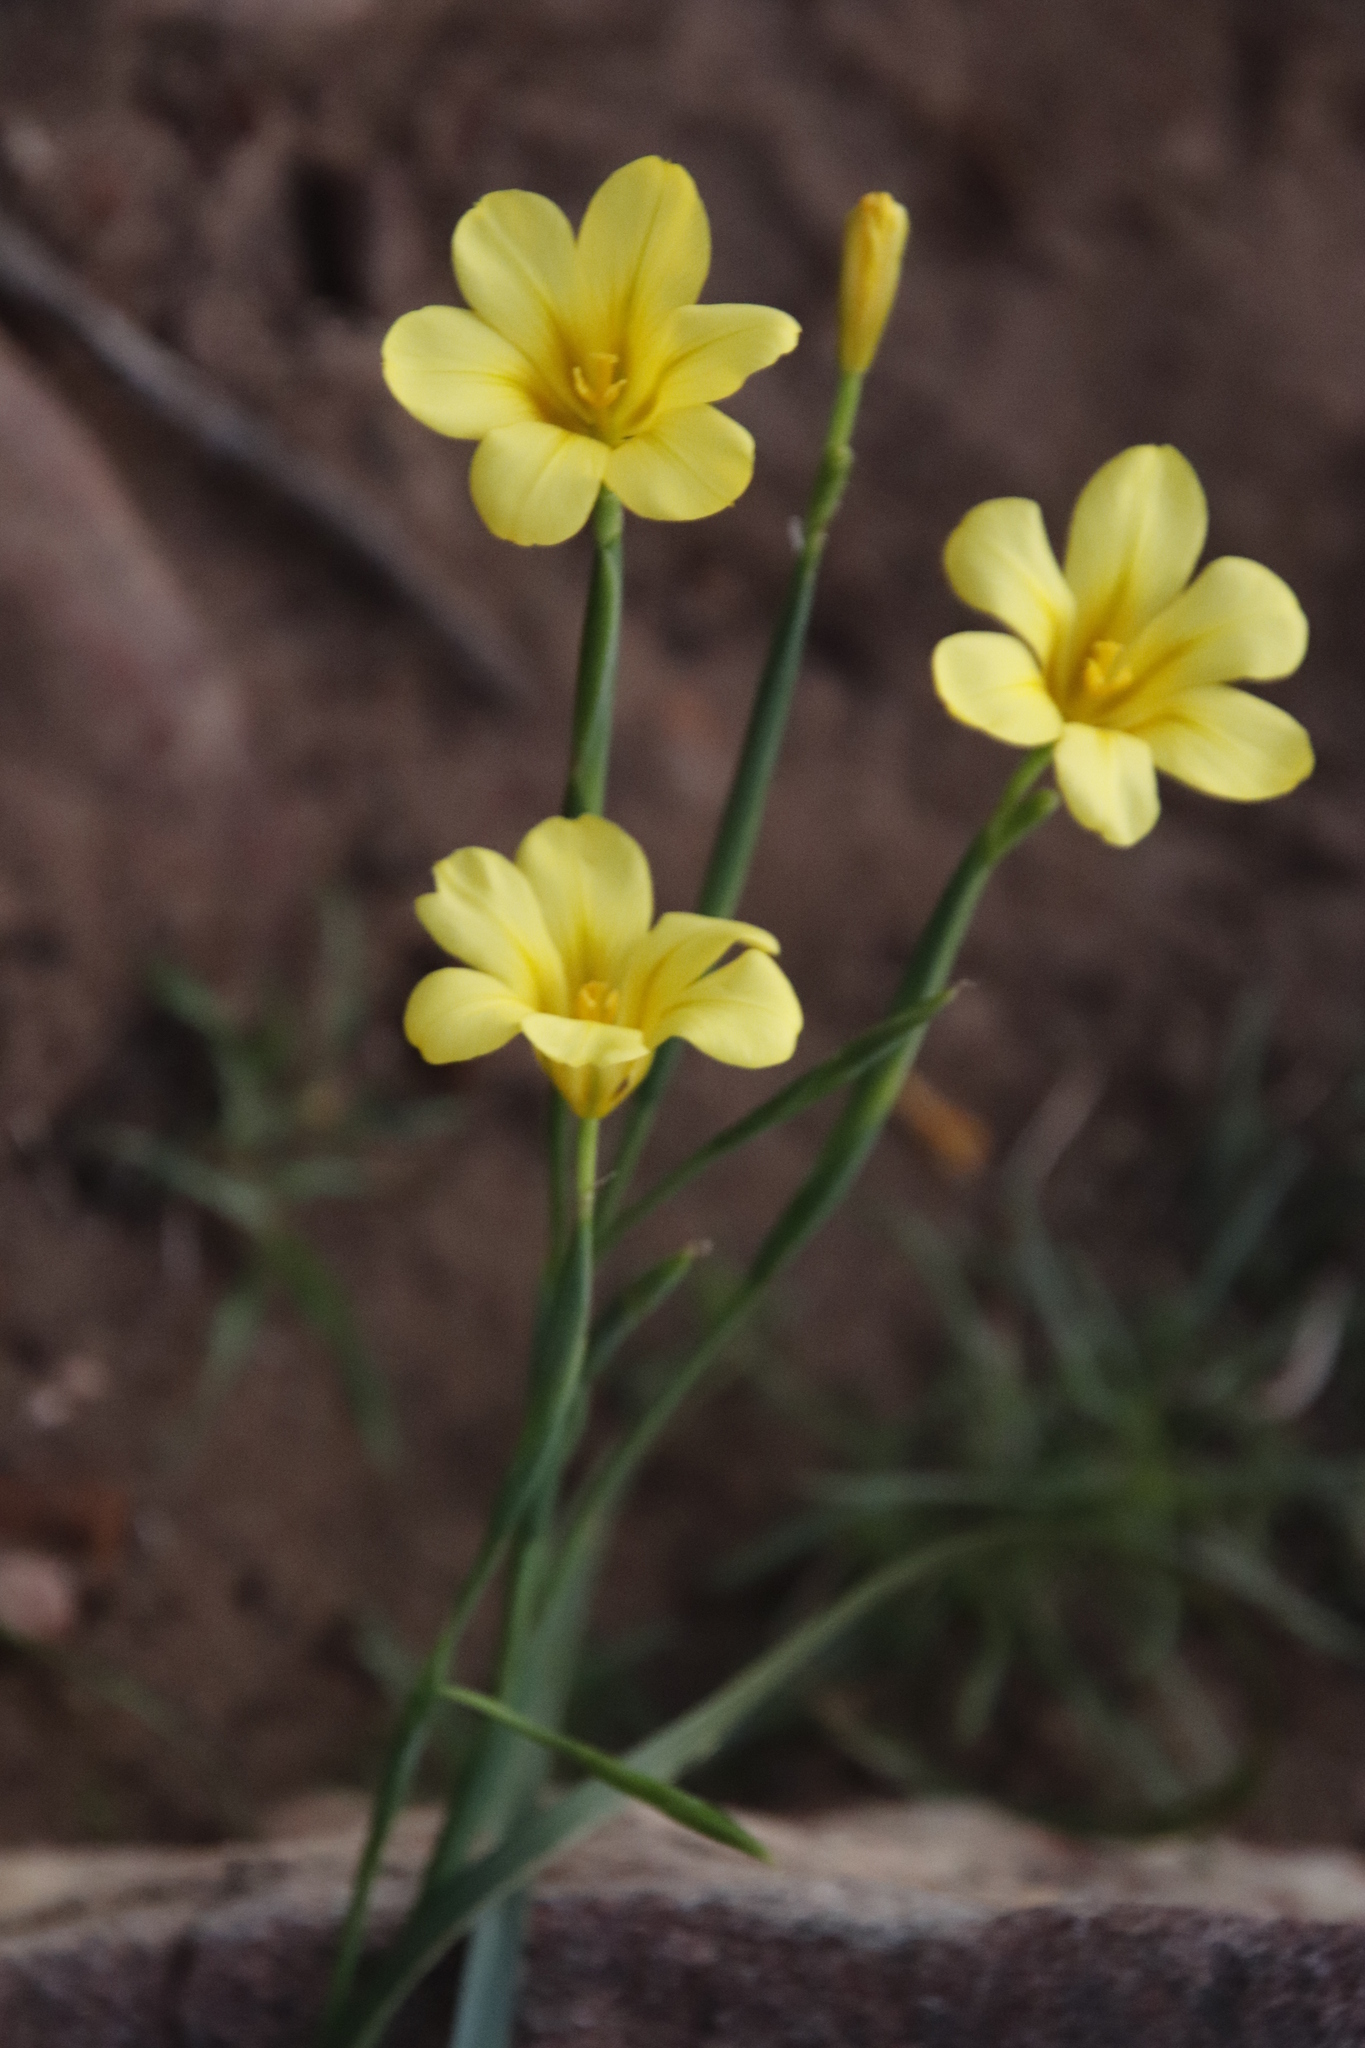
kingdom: Plantae
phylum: Tracheophyta
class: Liliopsida
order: Asparagales
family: Iridaceae
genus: Moraea
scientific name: Moraea ochroleuca
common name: Red tulp
